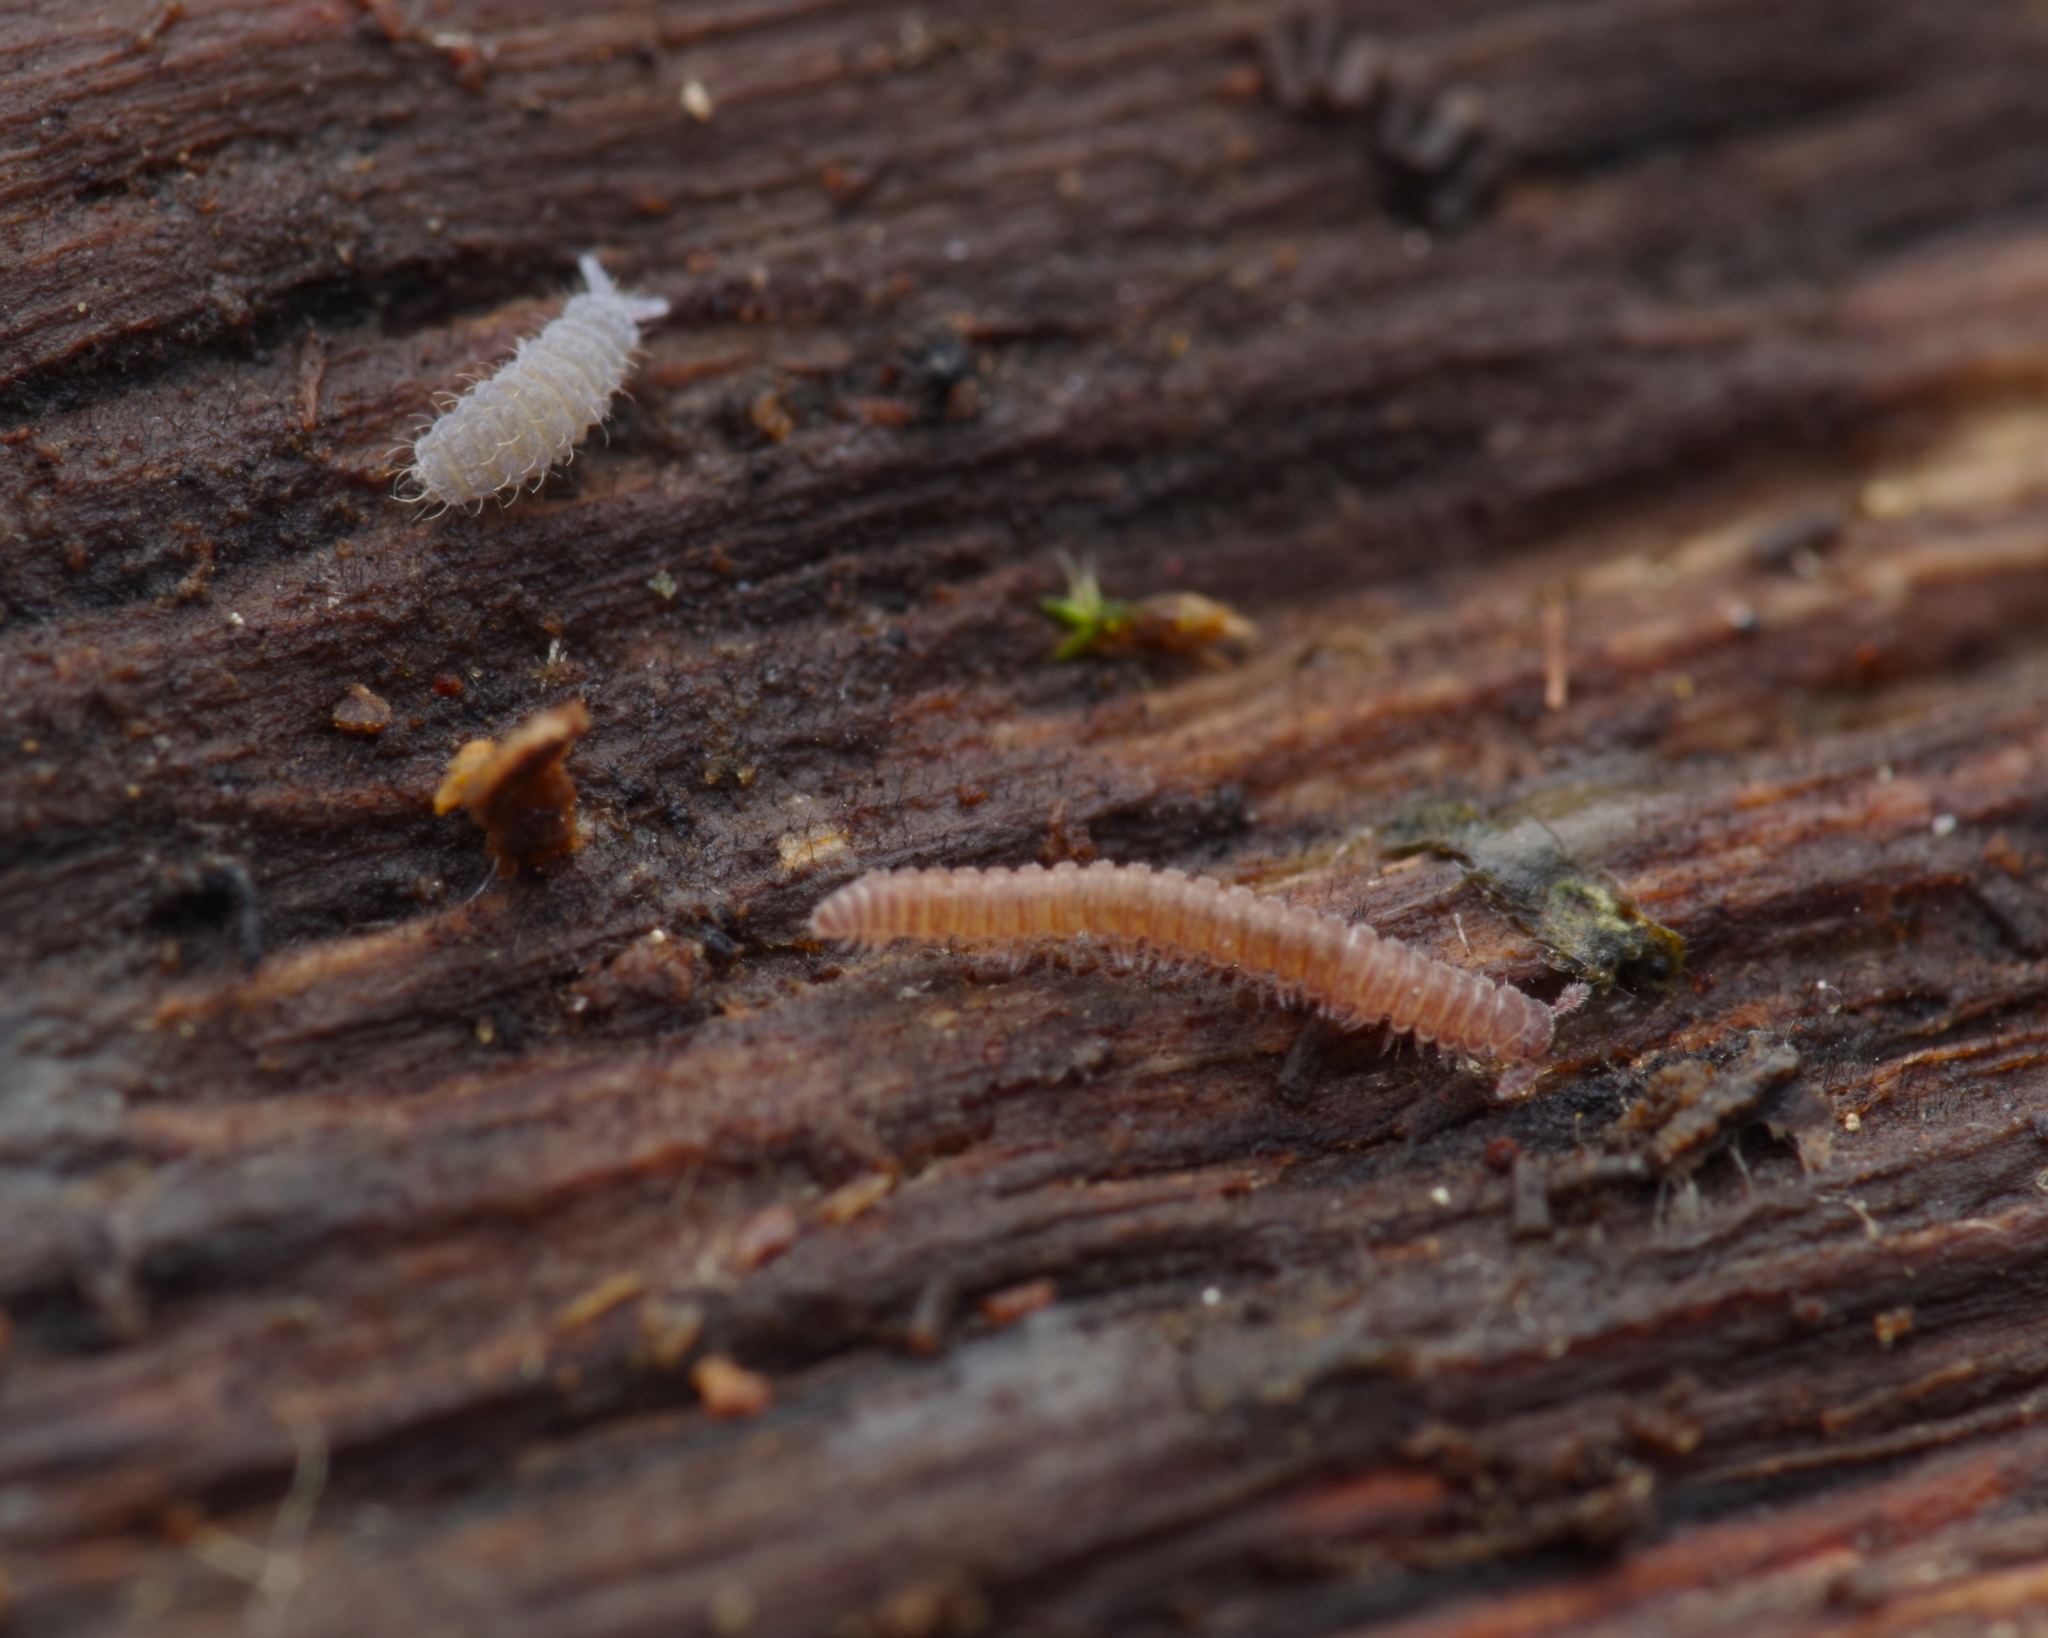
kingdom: Animalia
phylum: Arthropoda
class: Diplopoda
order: Chordeumatida
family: Chamaesomatidae
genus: Chamaesoma
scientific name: Chamaesoma broelemanni
